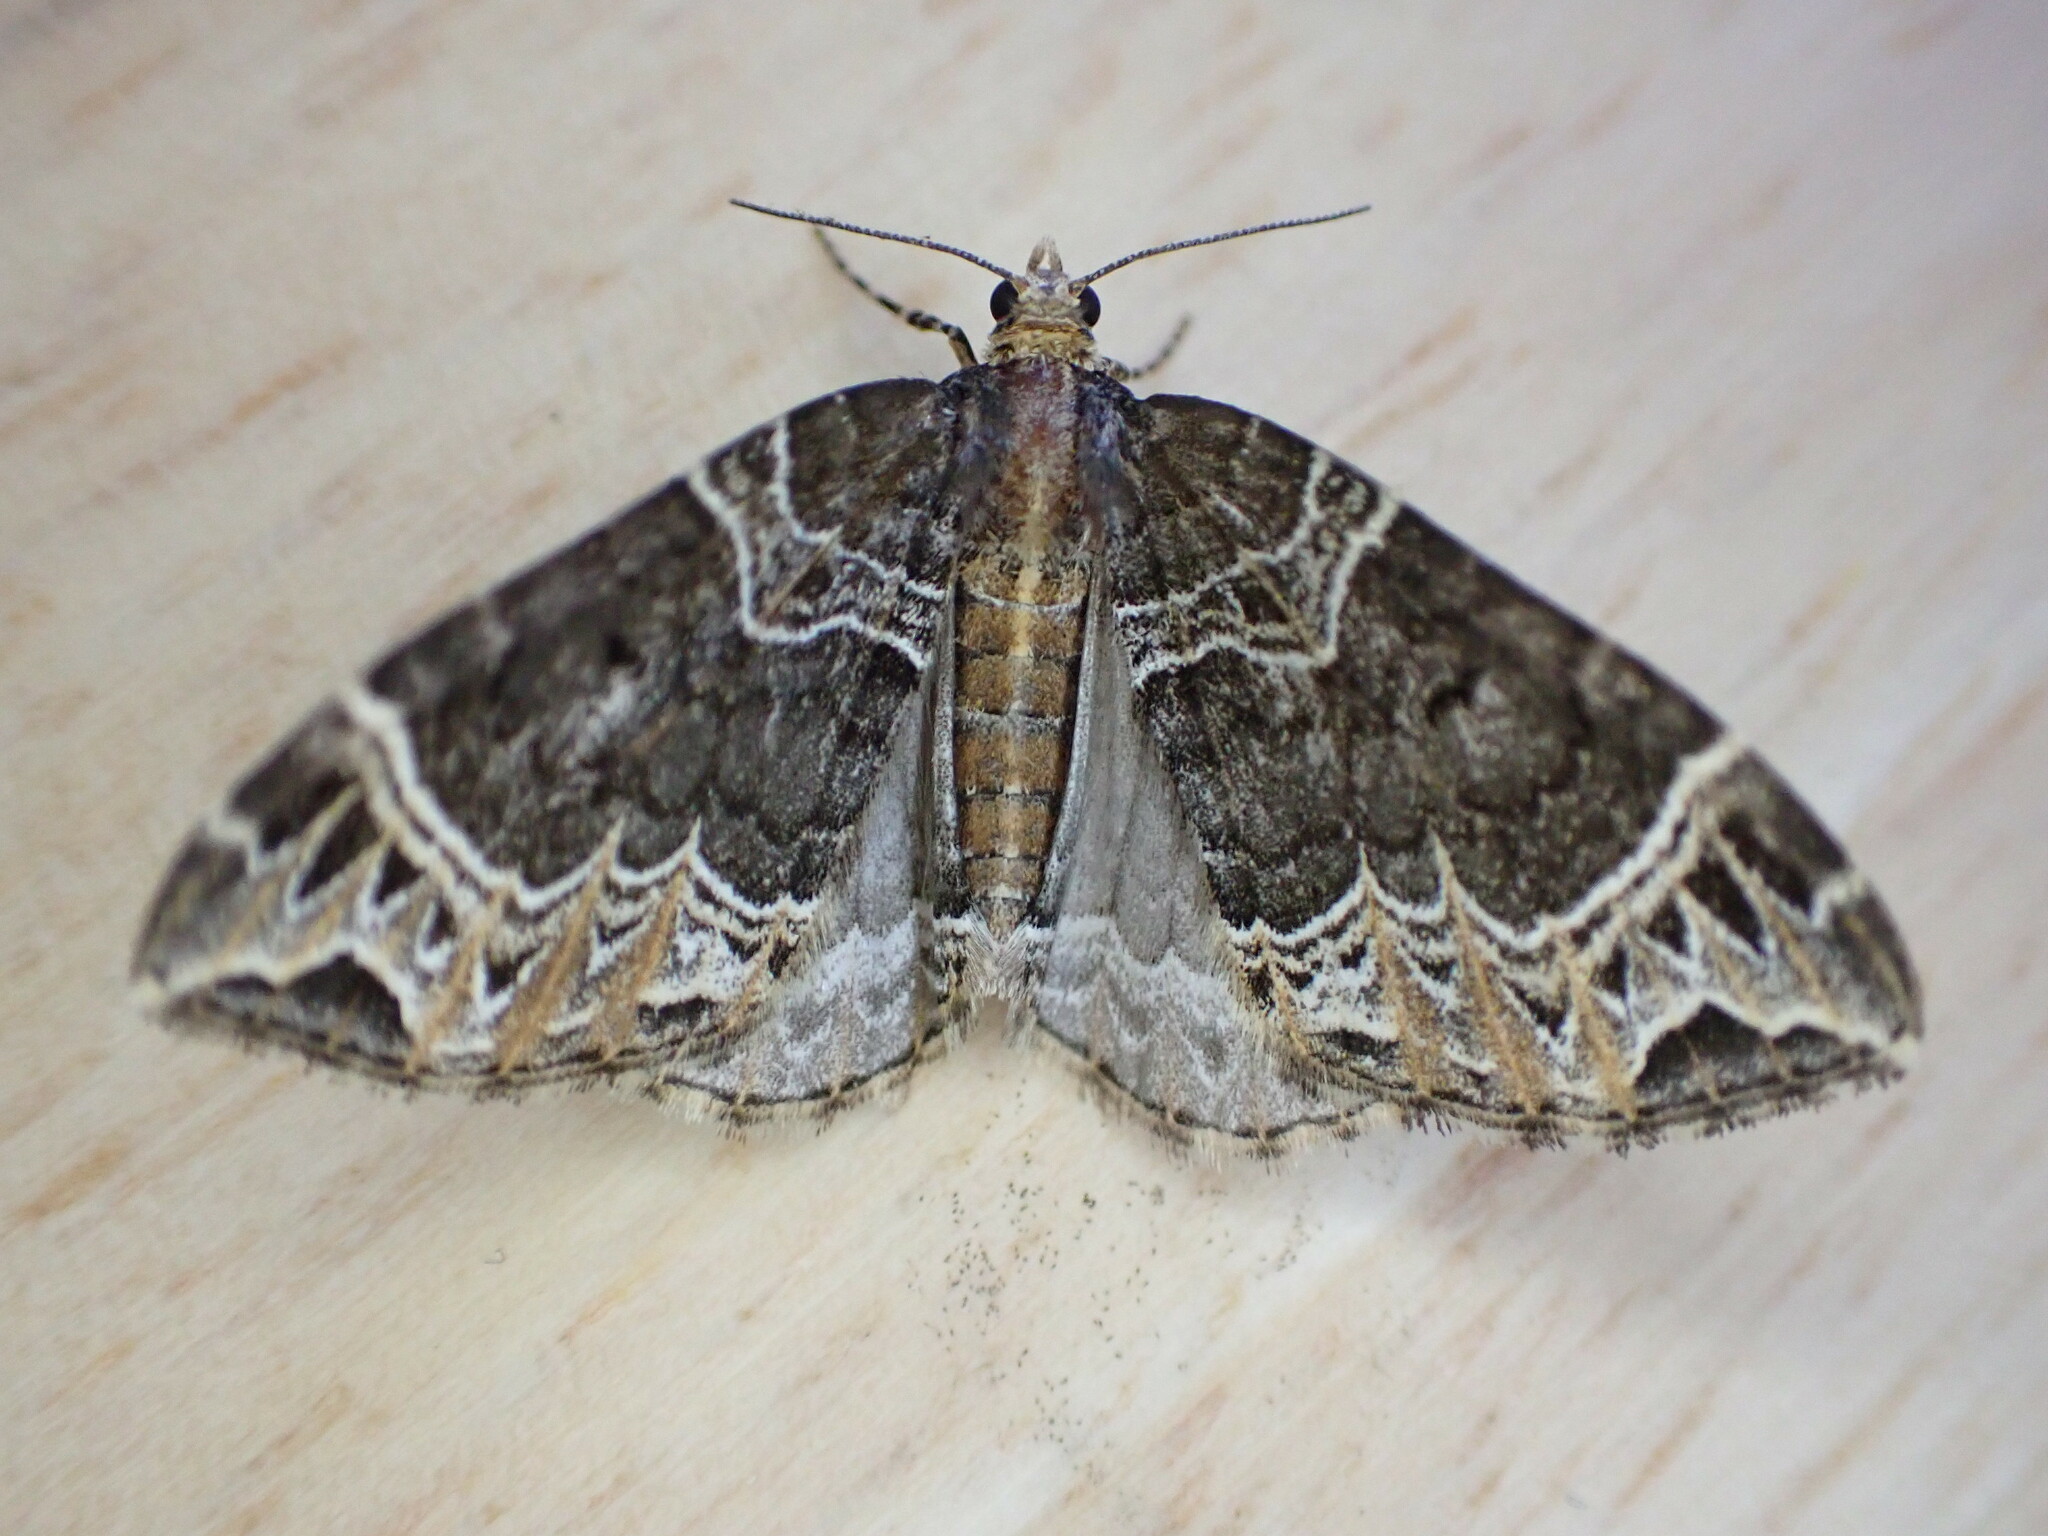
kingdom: Animalia
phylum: Arthropoda
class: Insecta
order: Lepidoptera
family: Geometridae
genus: Ecliptopera
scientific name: Ecliptopera silaceata
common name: Small phoenix
